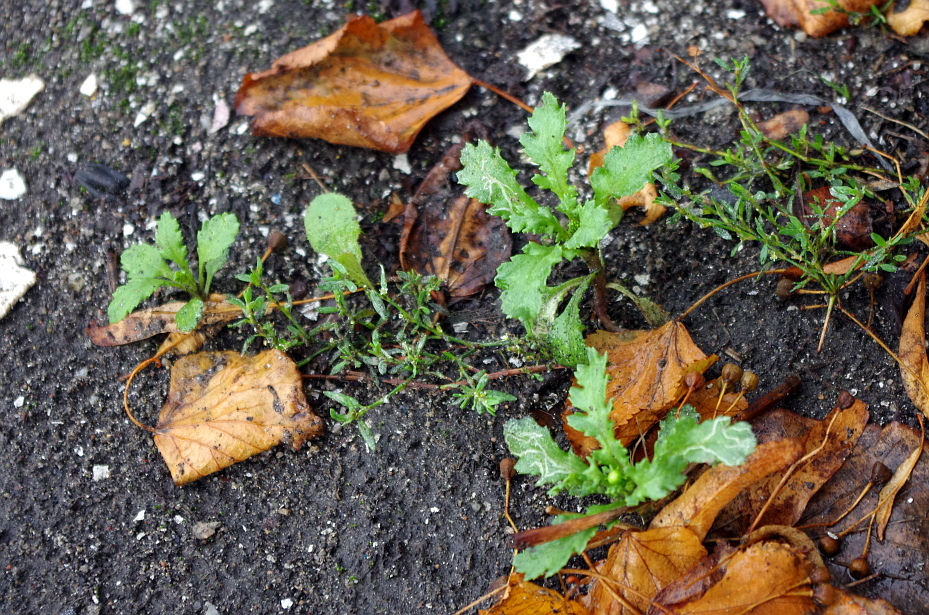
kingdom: Plantae
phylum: Tracheophyta
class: Magnoliopsida
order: Asterales
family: Asteraceae
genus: Senecio
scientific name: Senecio vulgaris
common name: Old-man-in-the-spring
